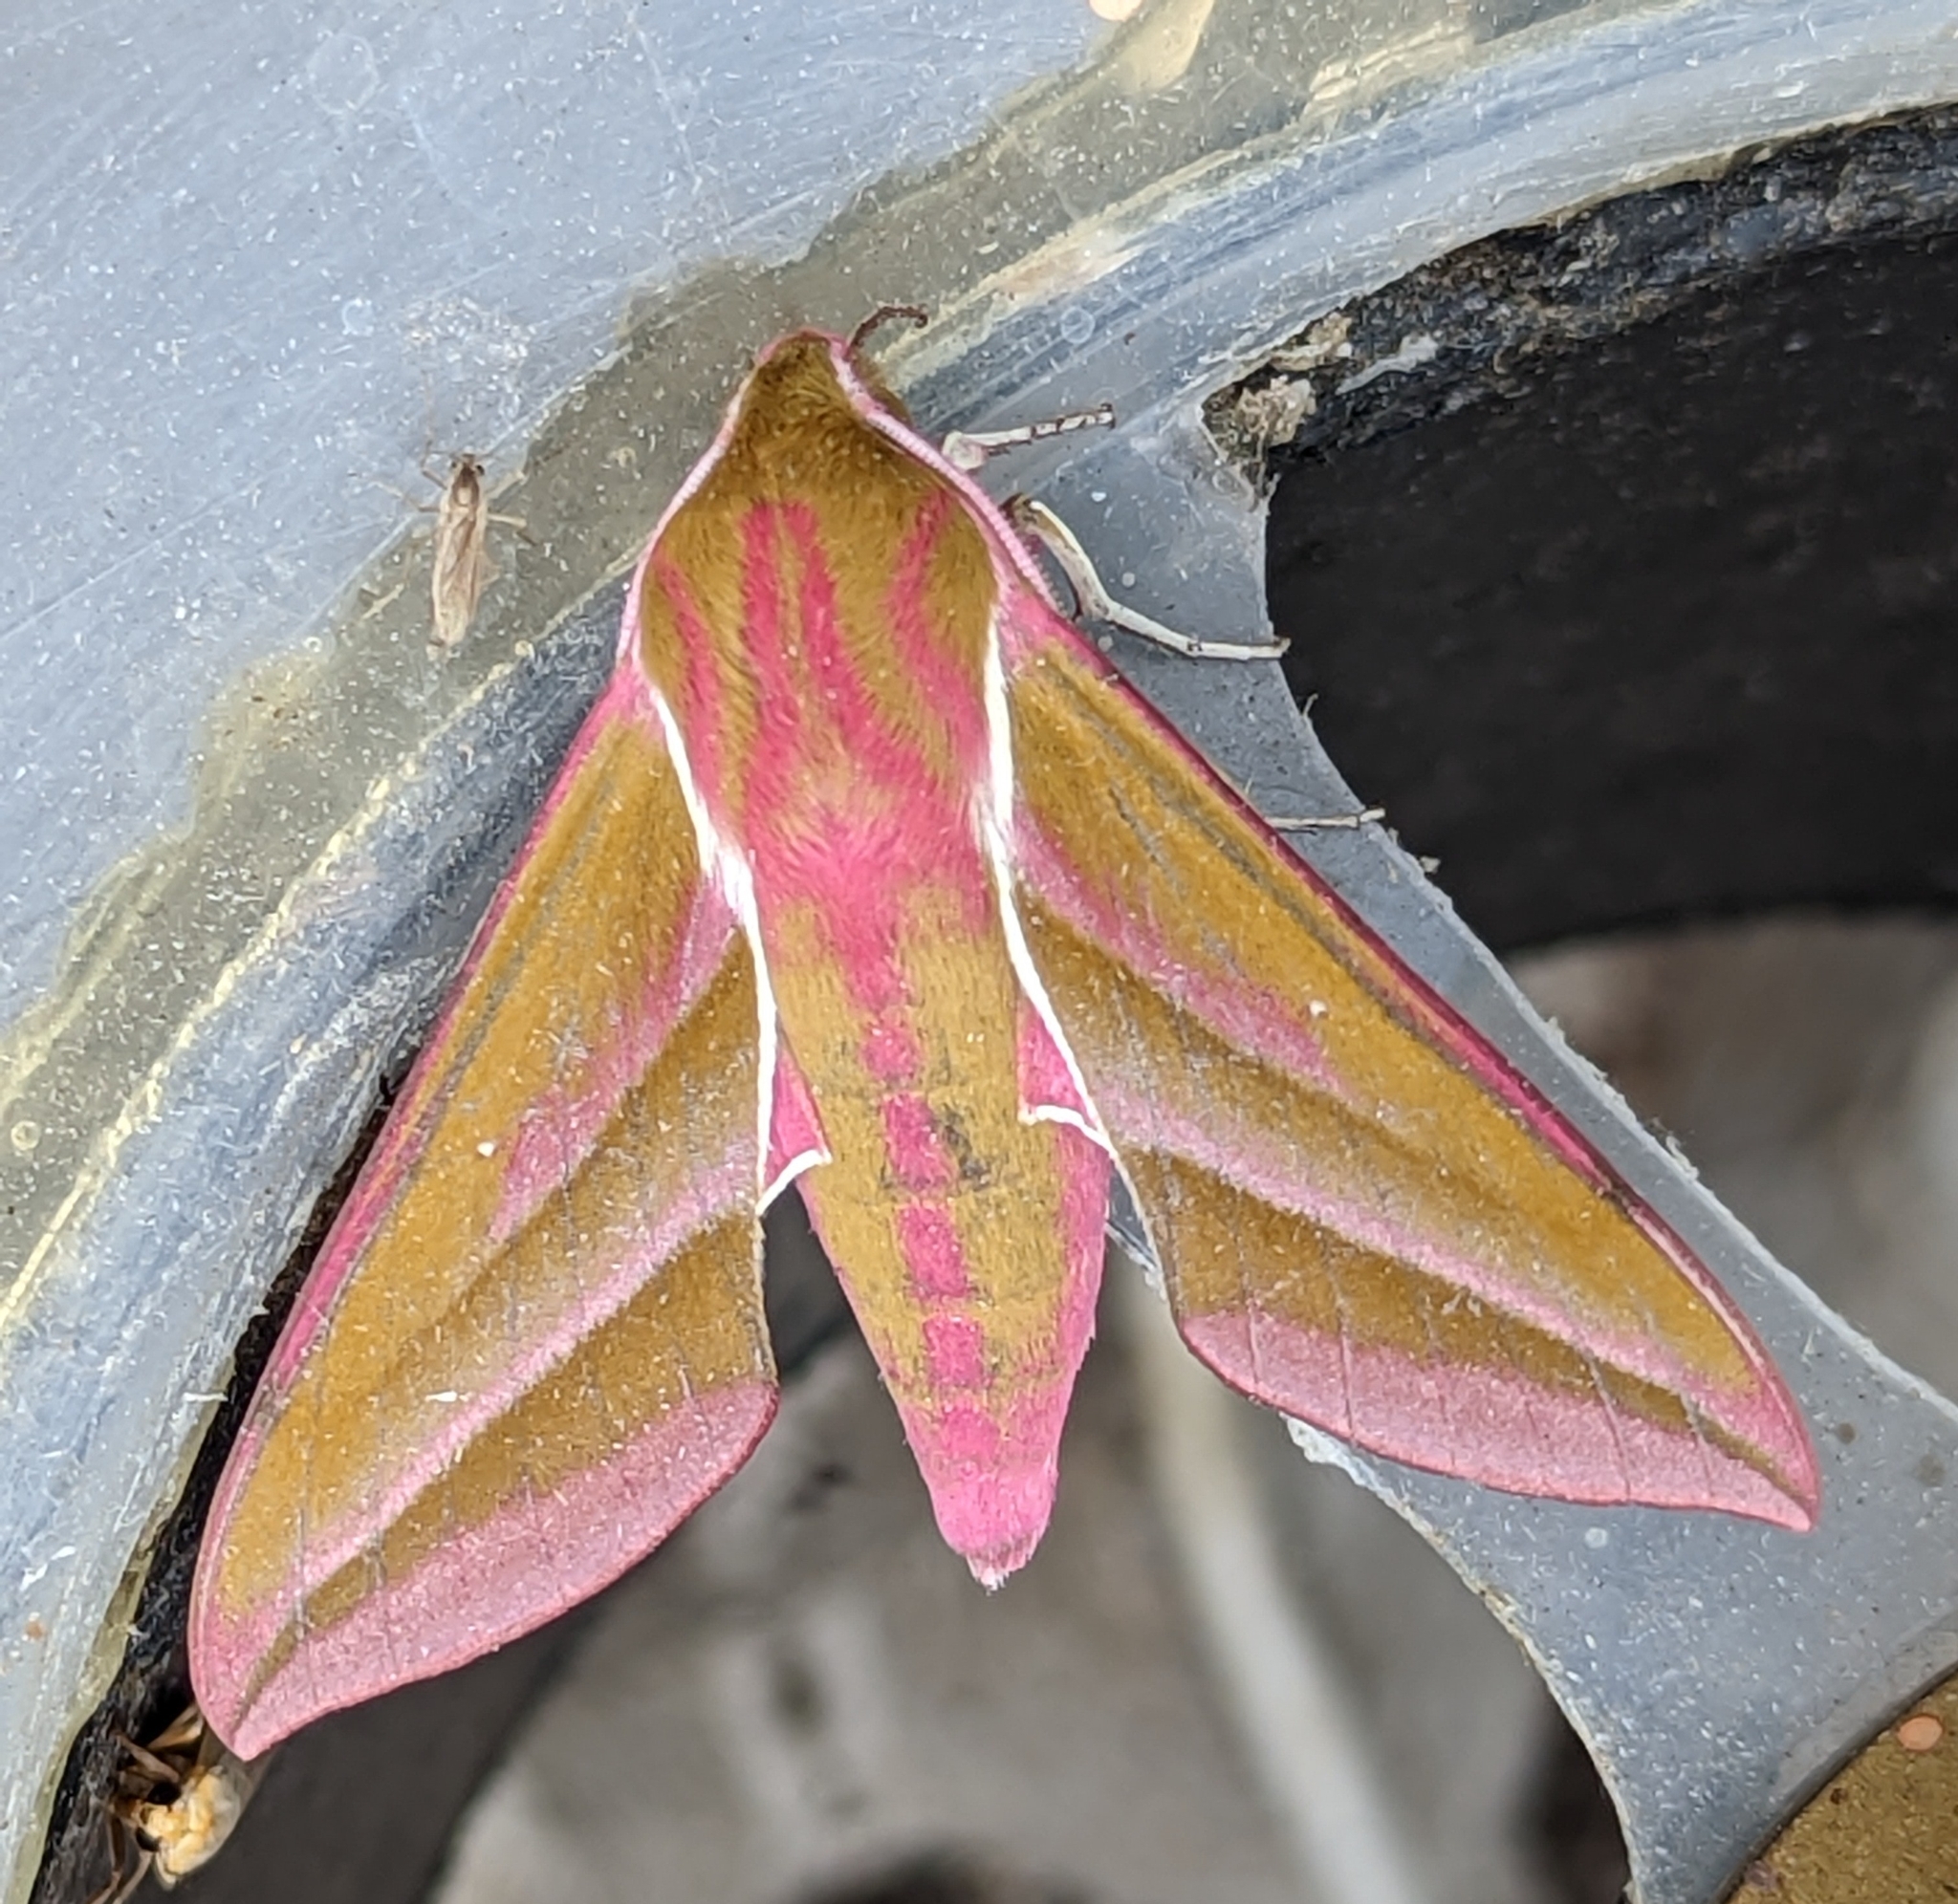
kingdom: Animalia
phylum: Arthropoda
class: Insecta
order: Lepidoptera
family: Sphingidae
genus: Deilephila
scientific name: Deilephila elpenor
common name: Elephant hawk-moth
